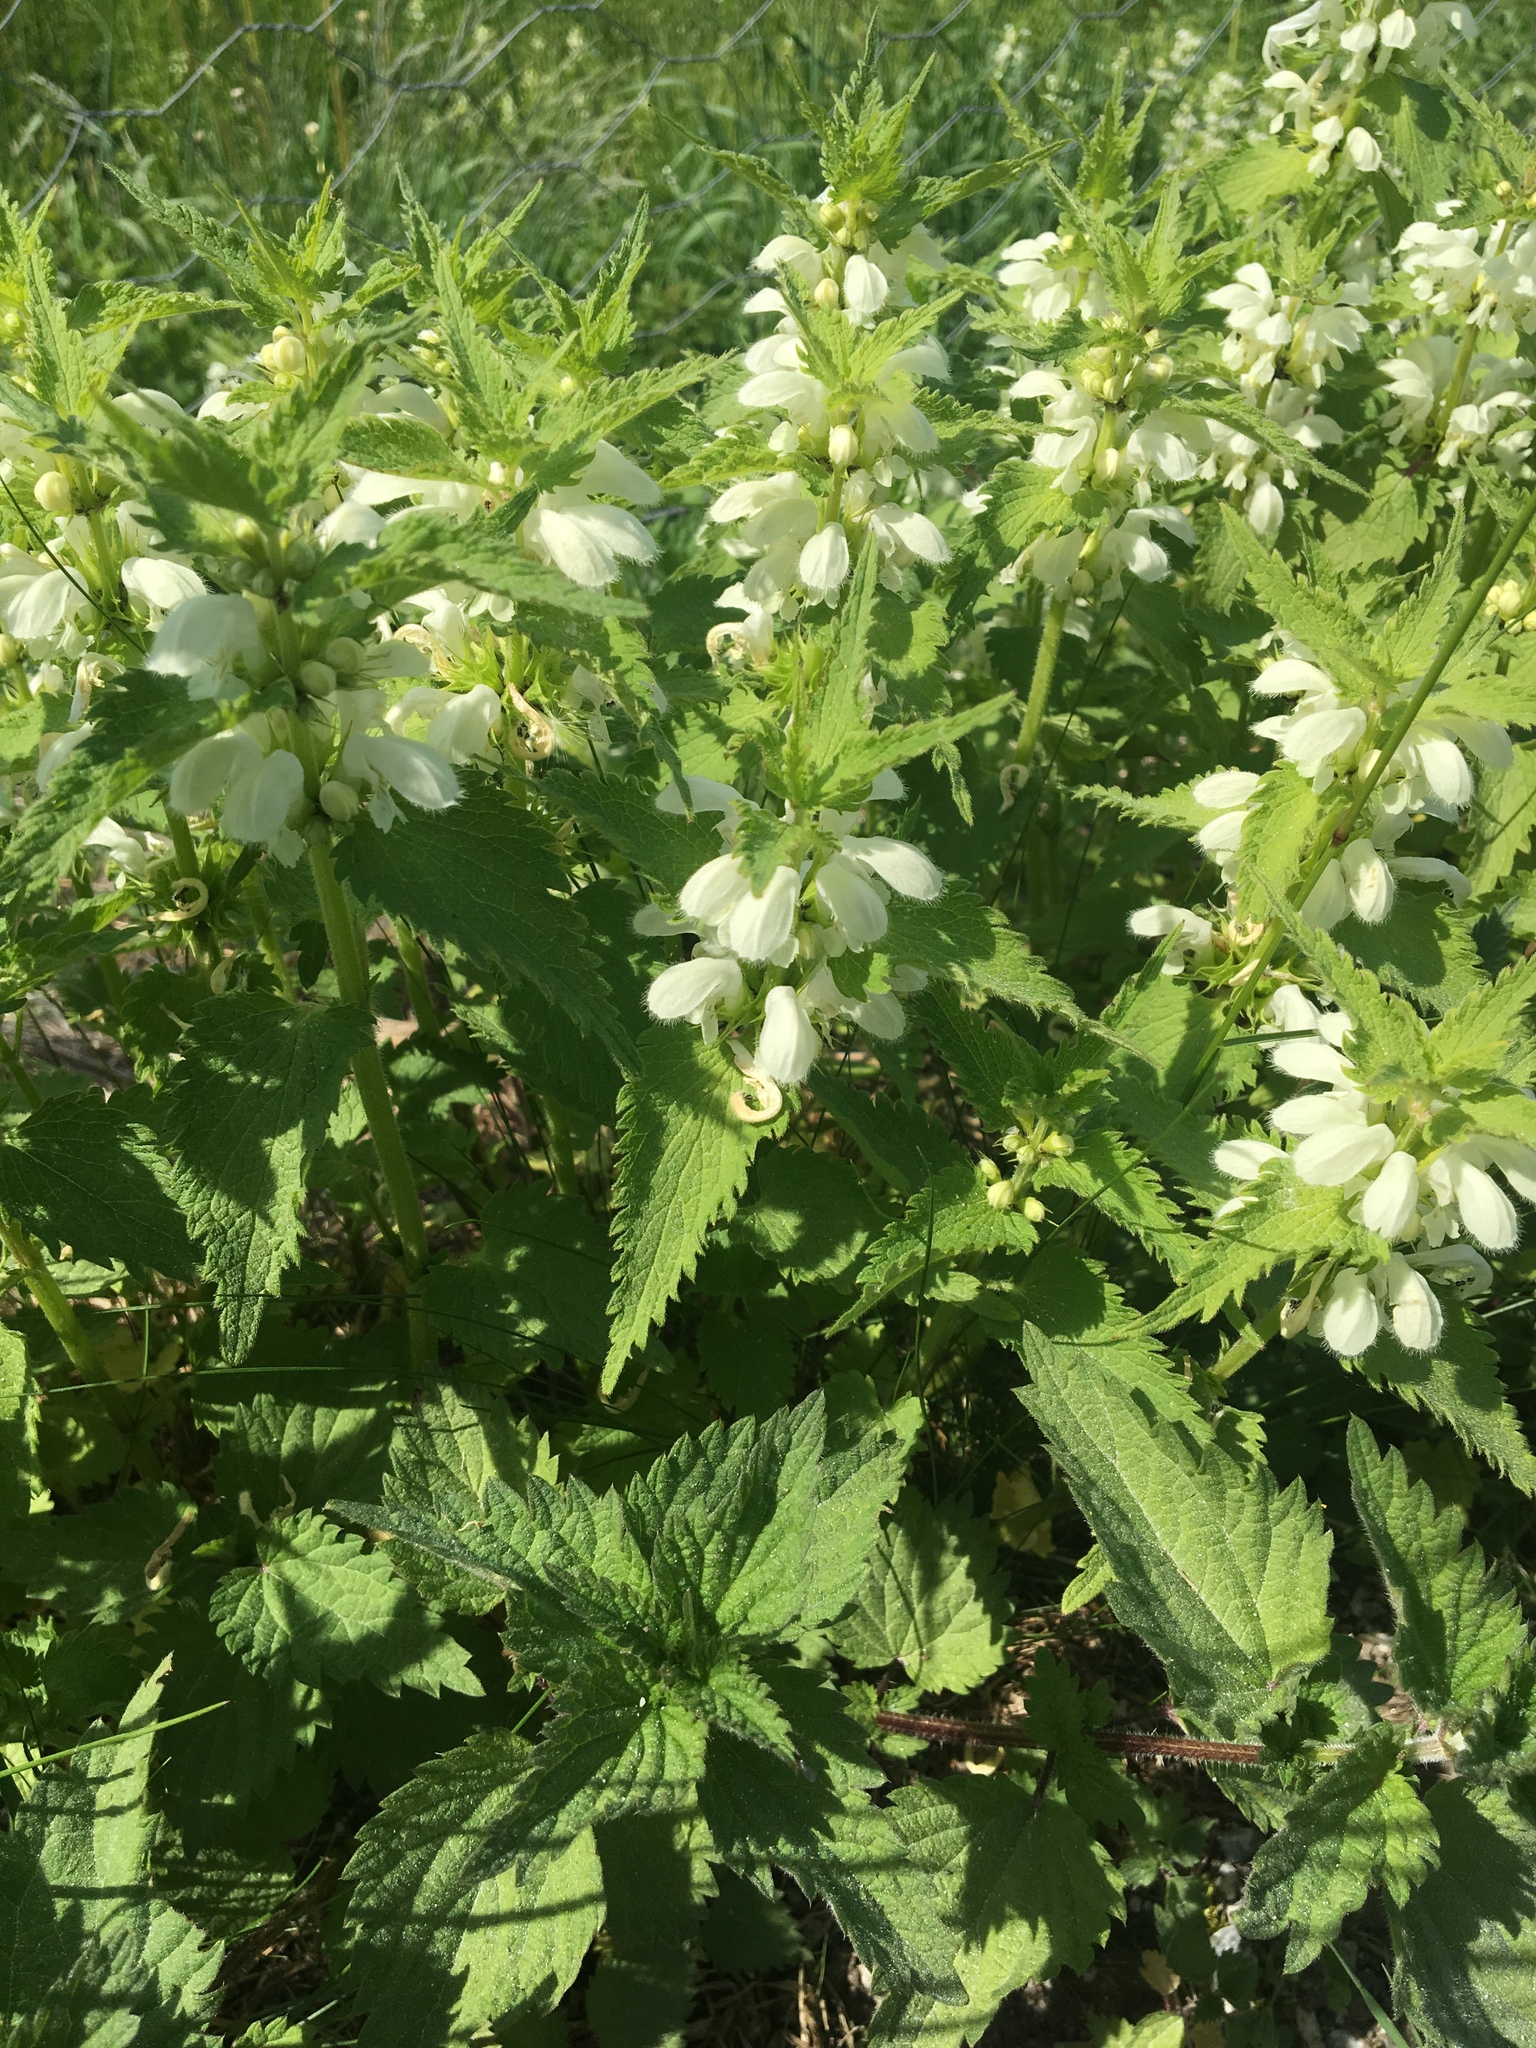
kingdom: Plantae
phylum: Tracheophyta
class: Magnoliopsida
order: Lamiales
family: Lamiaceae
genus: Lamium
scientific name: Lamium album
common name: White dead-nettle
